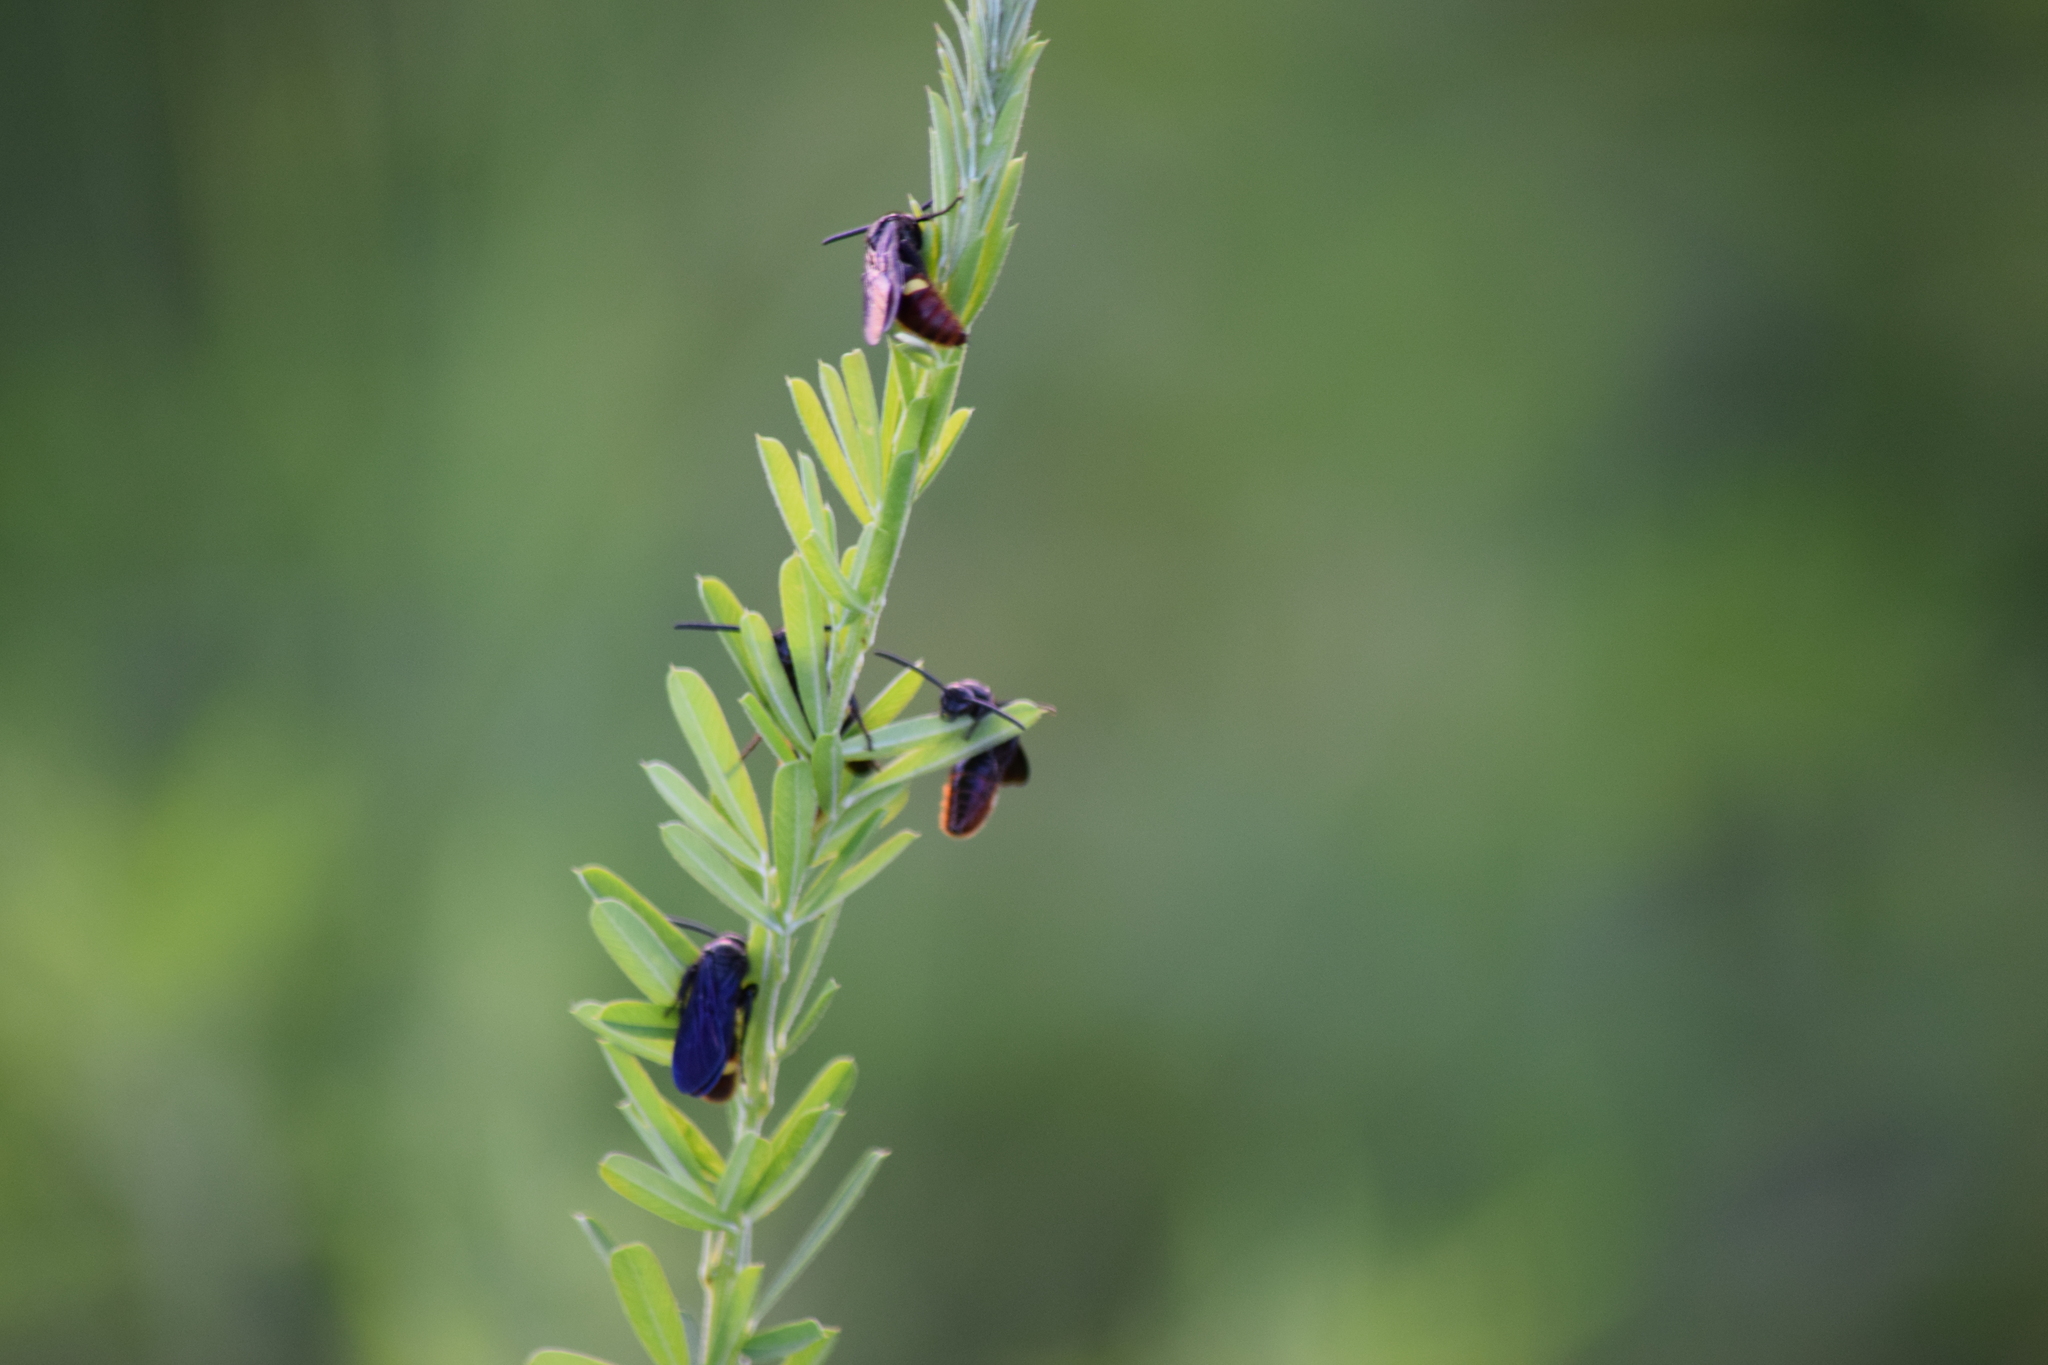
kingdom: Animalia
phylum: Arthropoda
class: Insecta
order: Hymenoptera
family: Scoliidae
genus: Scolia
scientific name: Scolia dubia
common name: Blue-winged scoliid wasp
